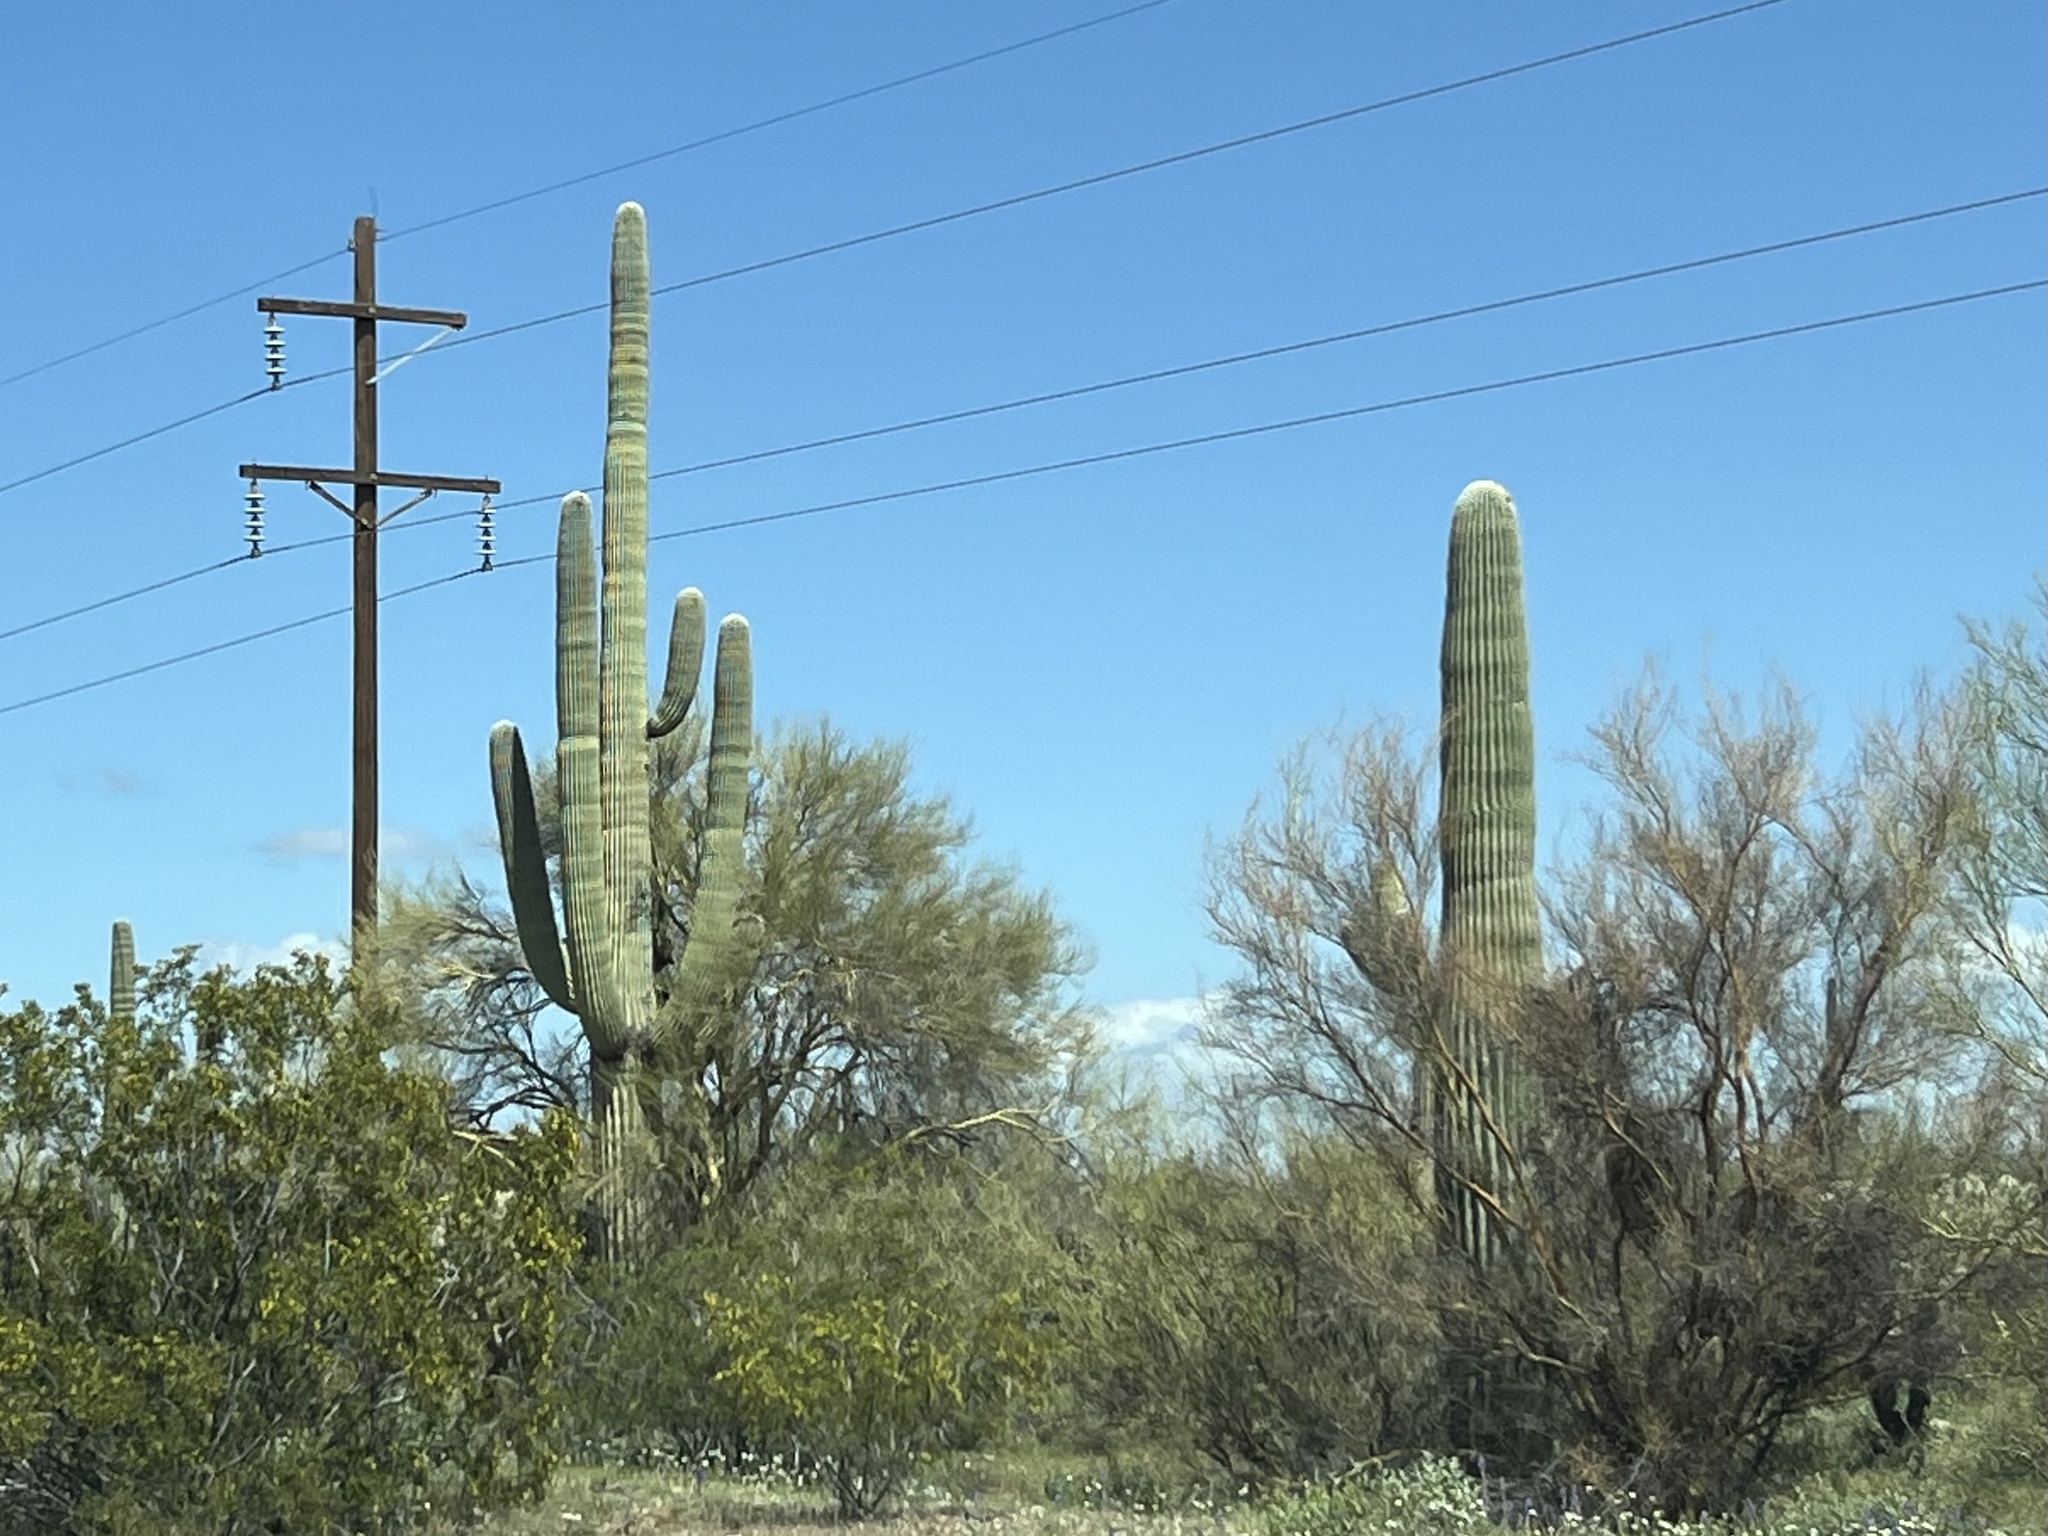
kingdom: Plantae
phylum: Tracheophyta
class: Magnoliopsida
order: Caryophyllales
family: Cactaceae
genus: Carnegiea
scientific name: Carnegiea gigantea
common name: Saguaro
